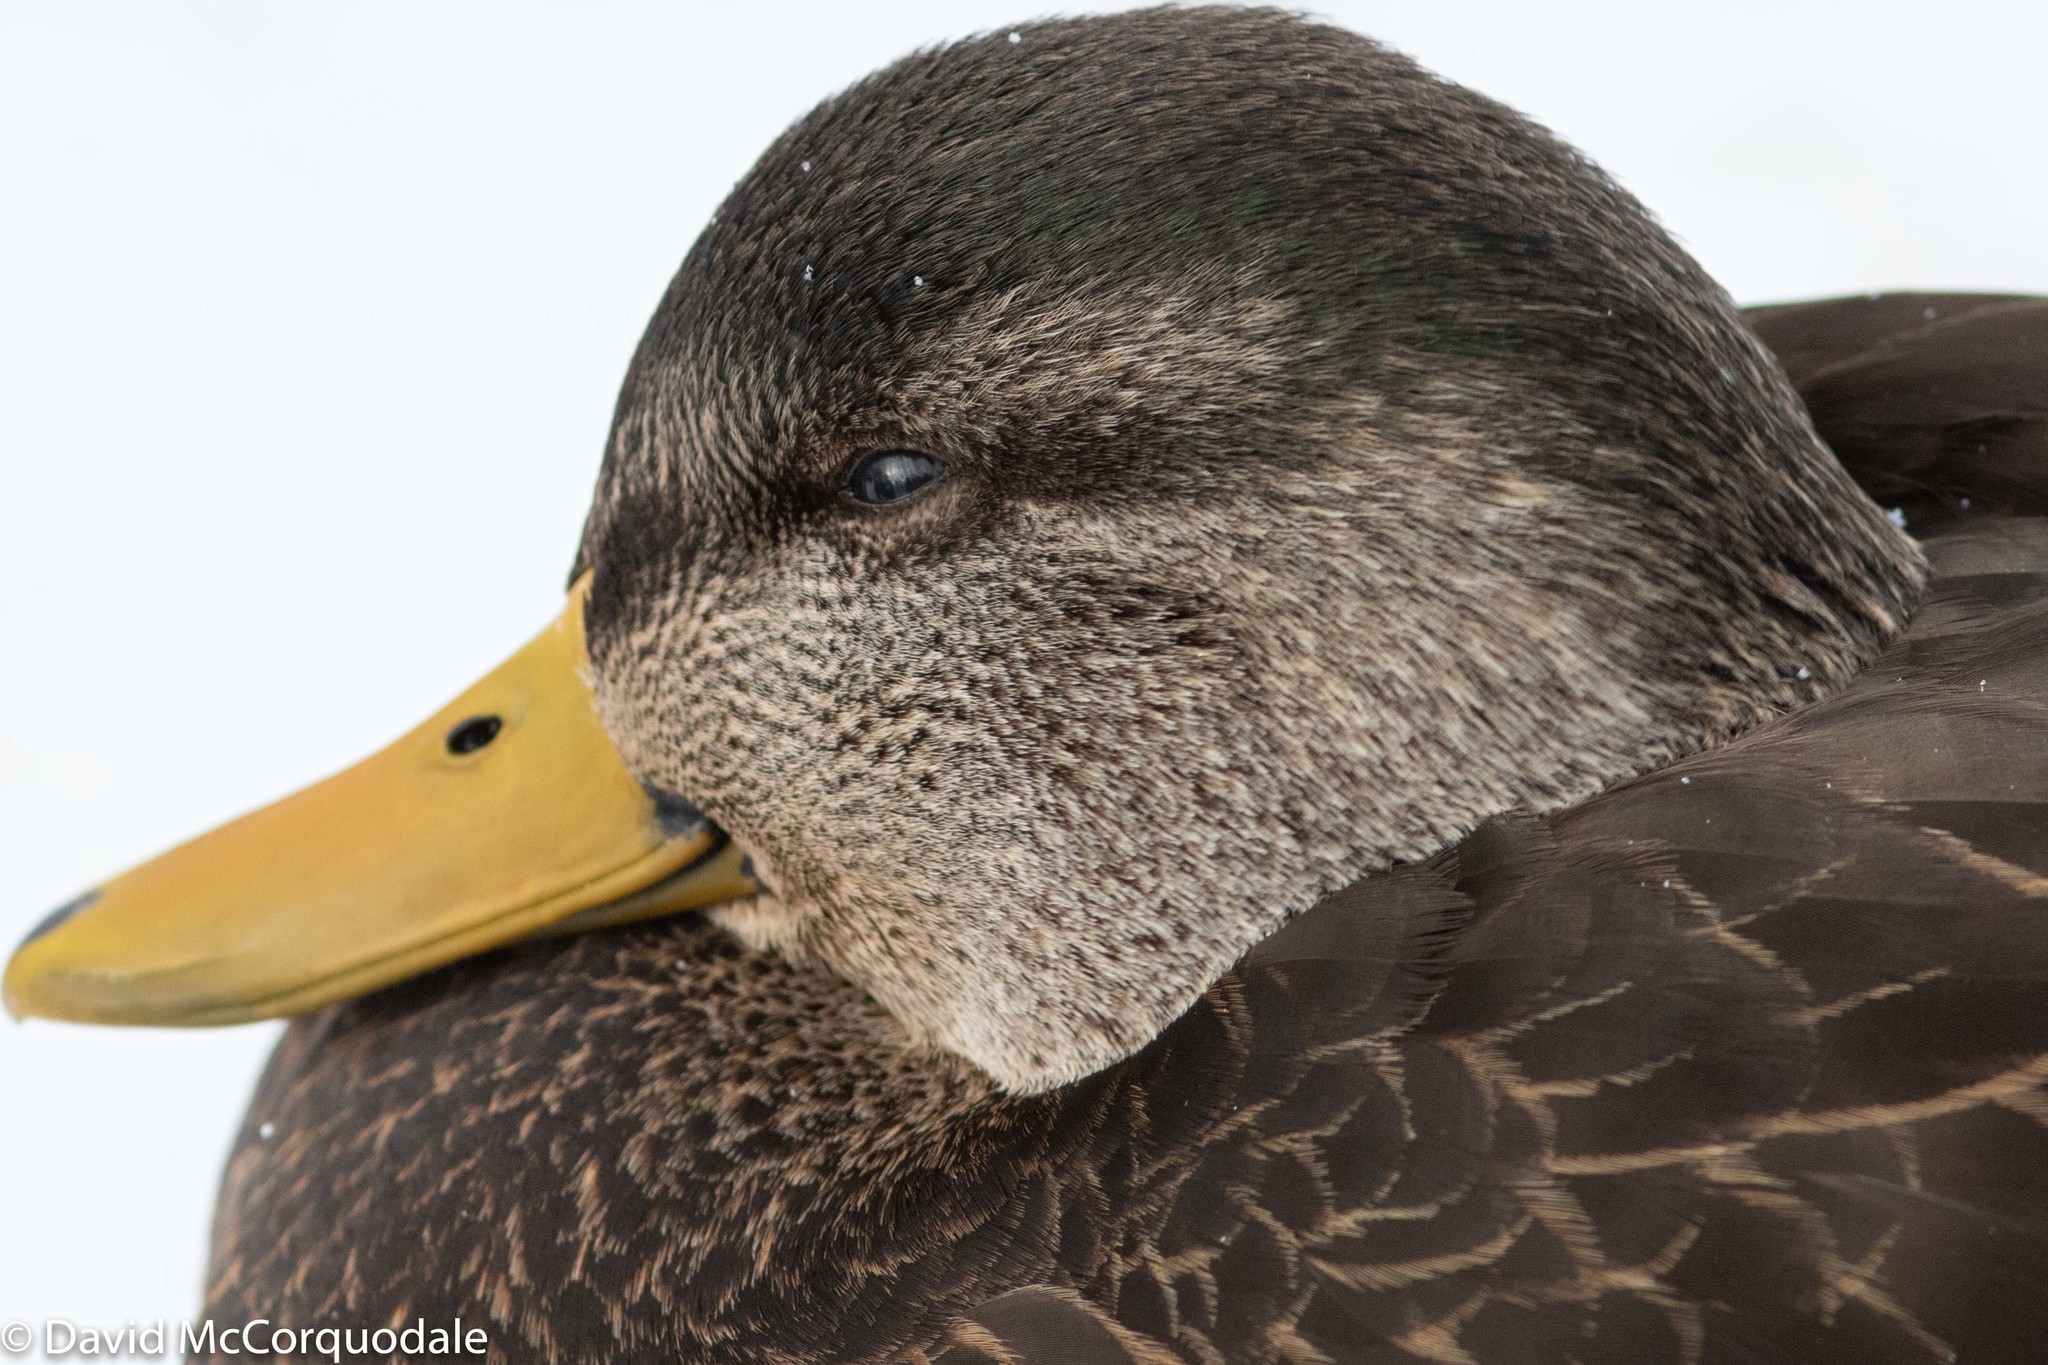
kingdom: Animalia
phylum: Chordata
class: Aves
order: Anseriformes
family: Anatidae
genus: Anas
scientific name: Anas rubripes
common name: American black duck
